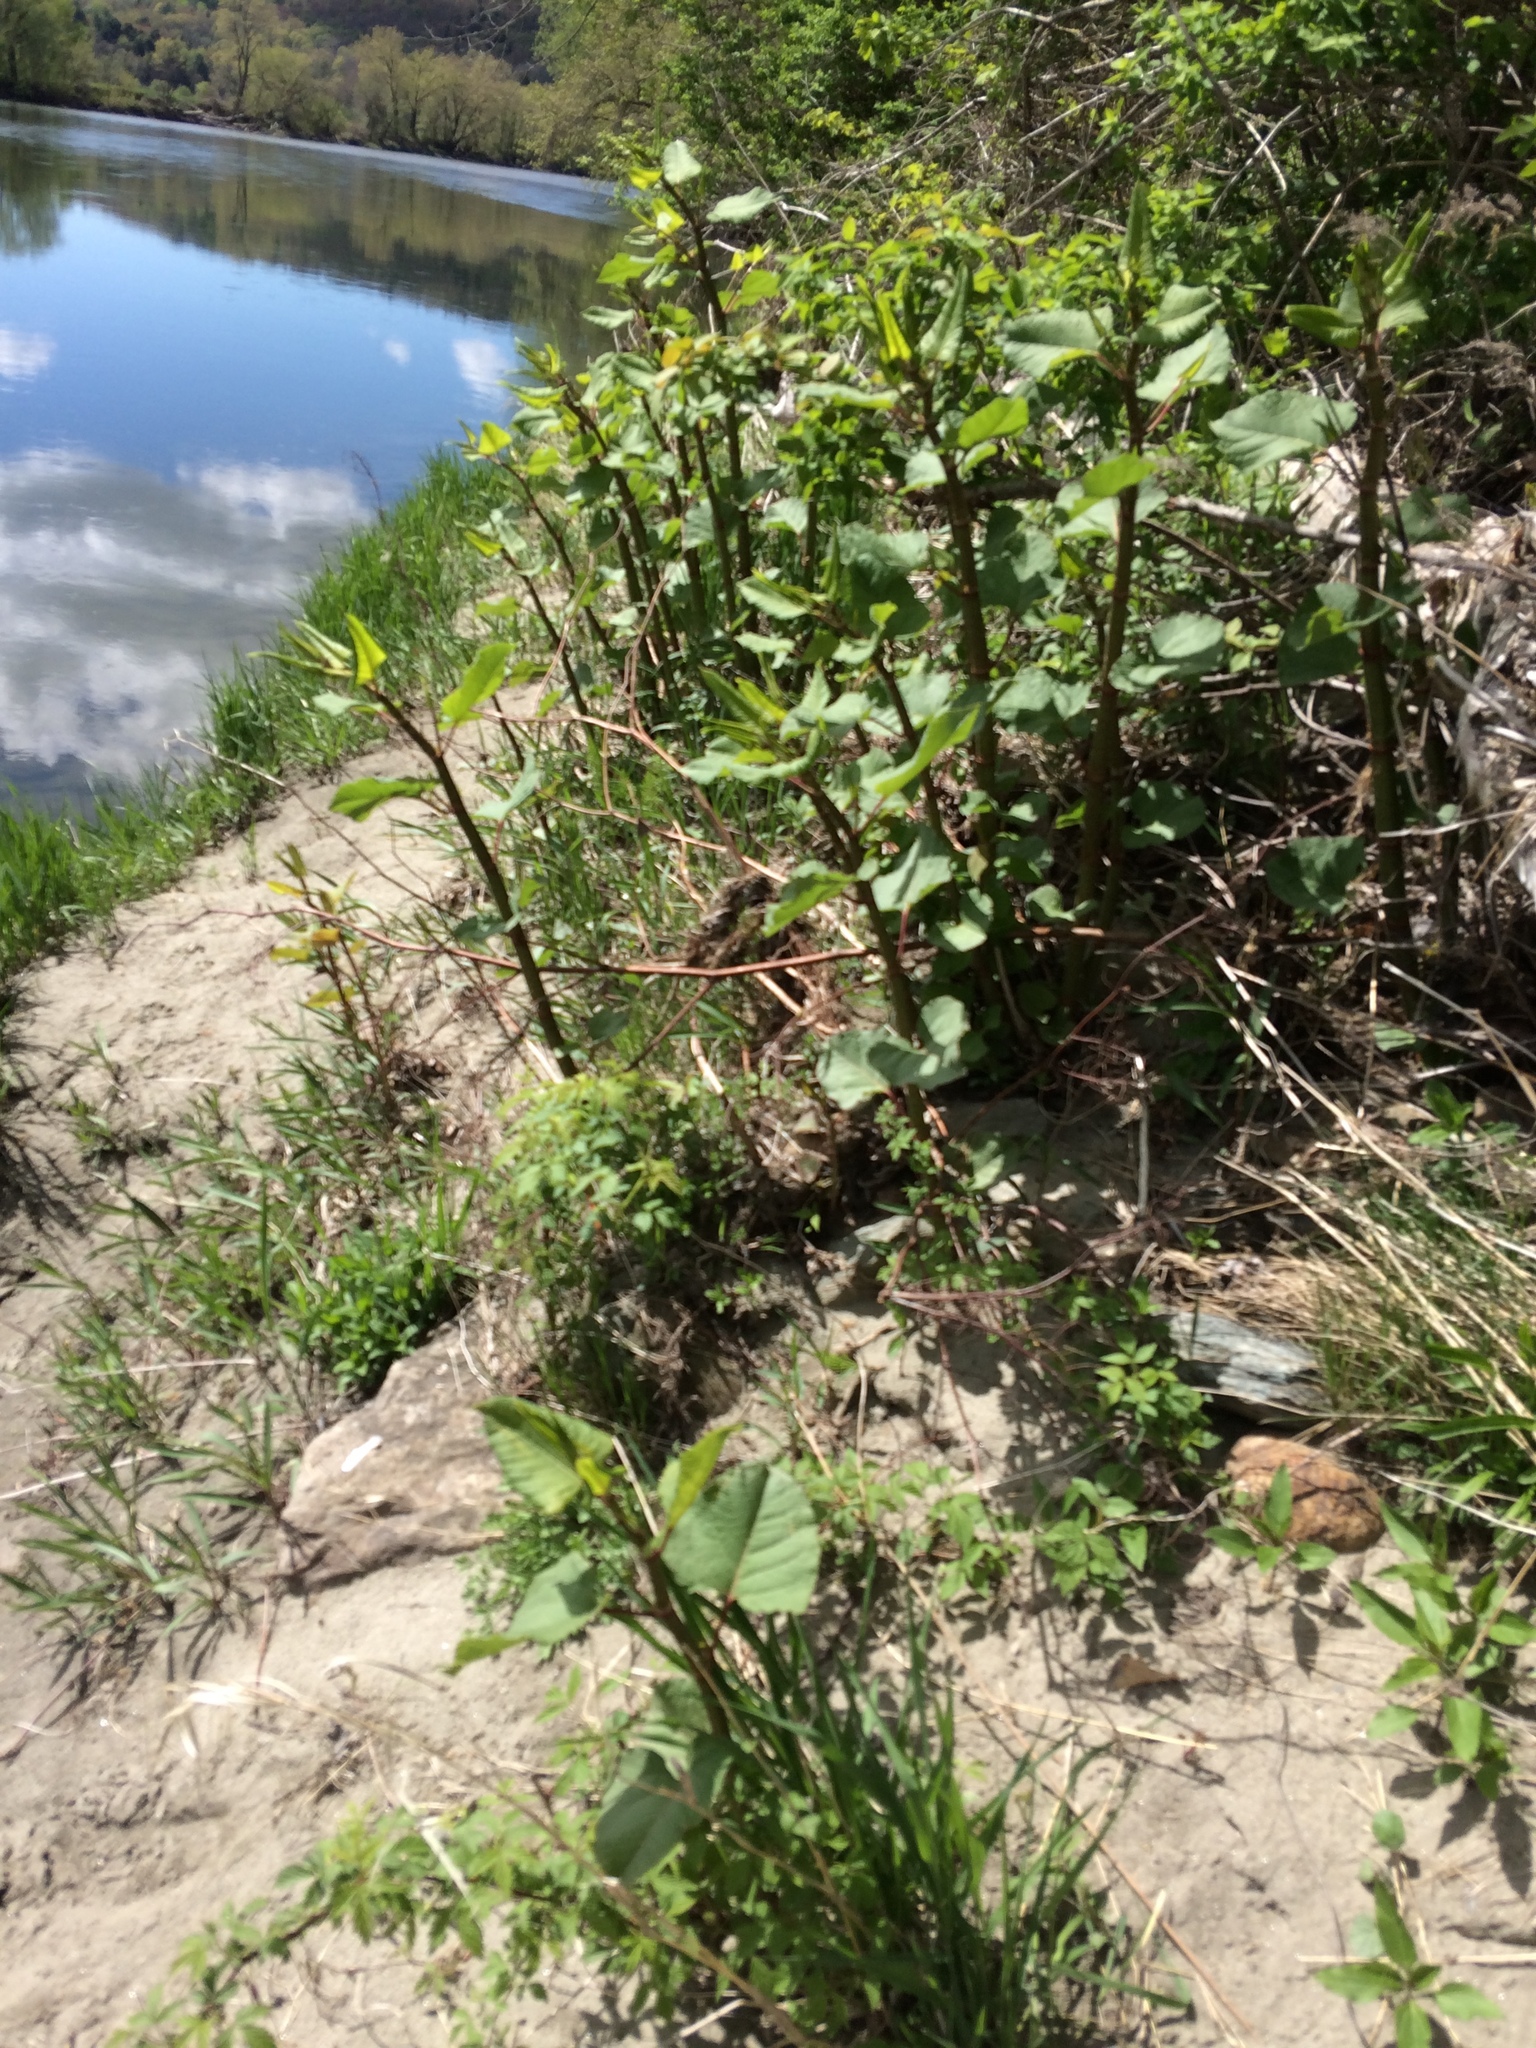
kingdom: Plantae
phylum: Tracheophyta
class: Magnoliopsida
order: Caryophyllales
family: Polygonaceae
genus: Reynoutria
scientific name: Reynoutria japonica
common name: Japanese knotweed
